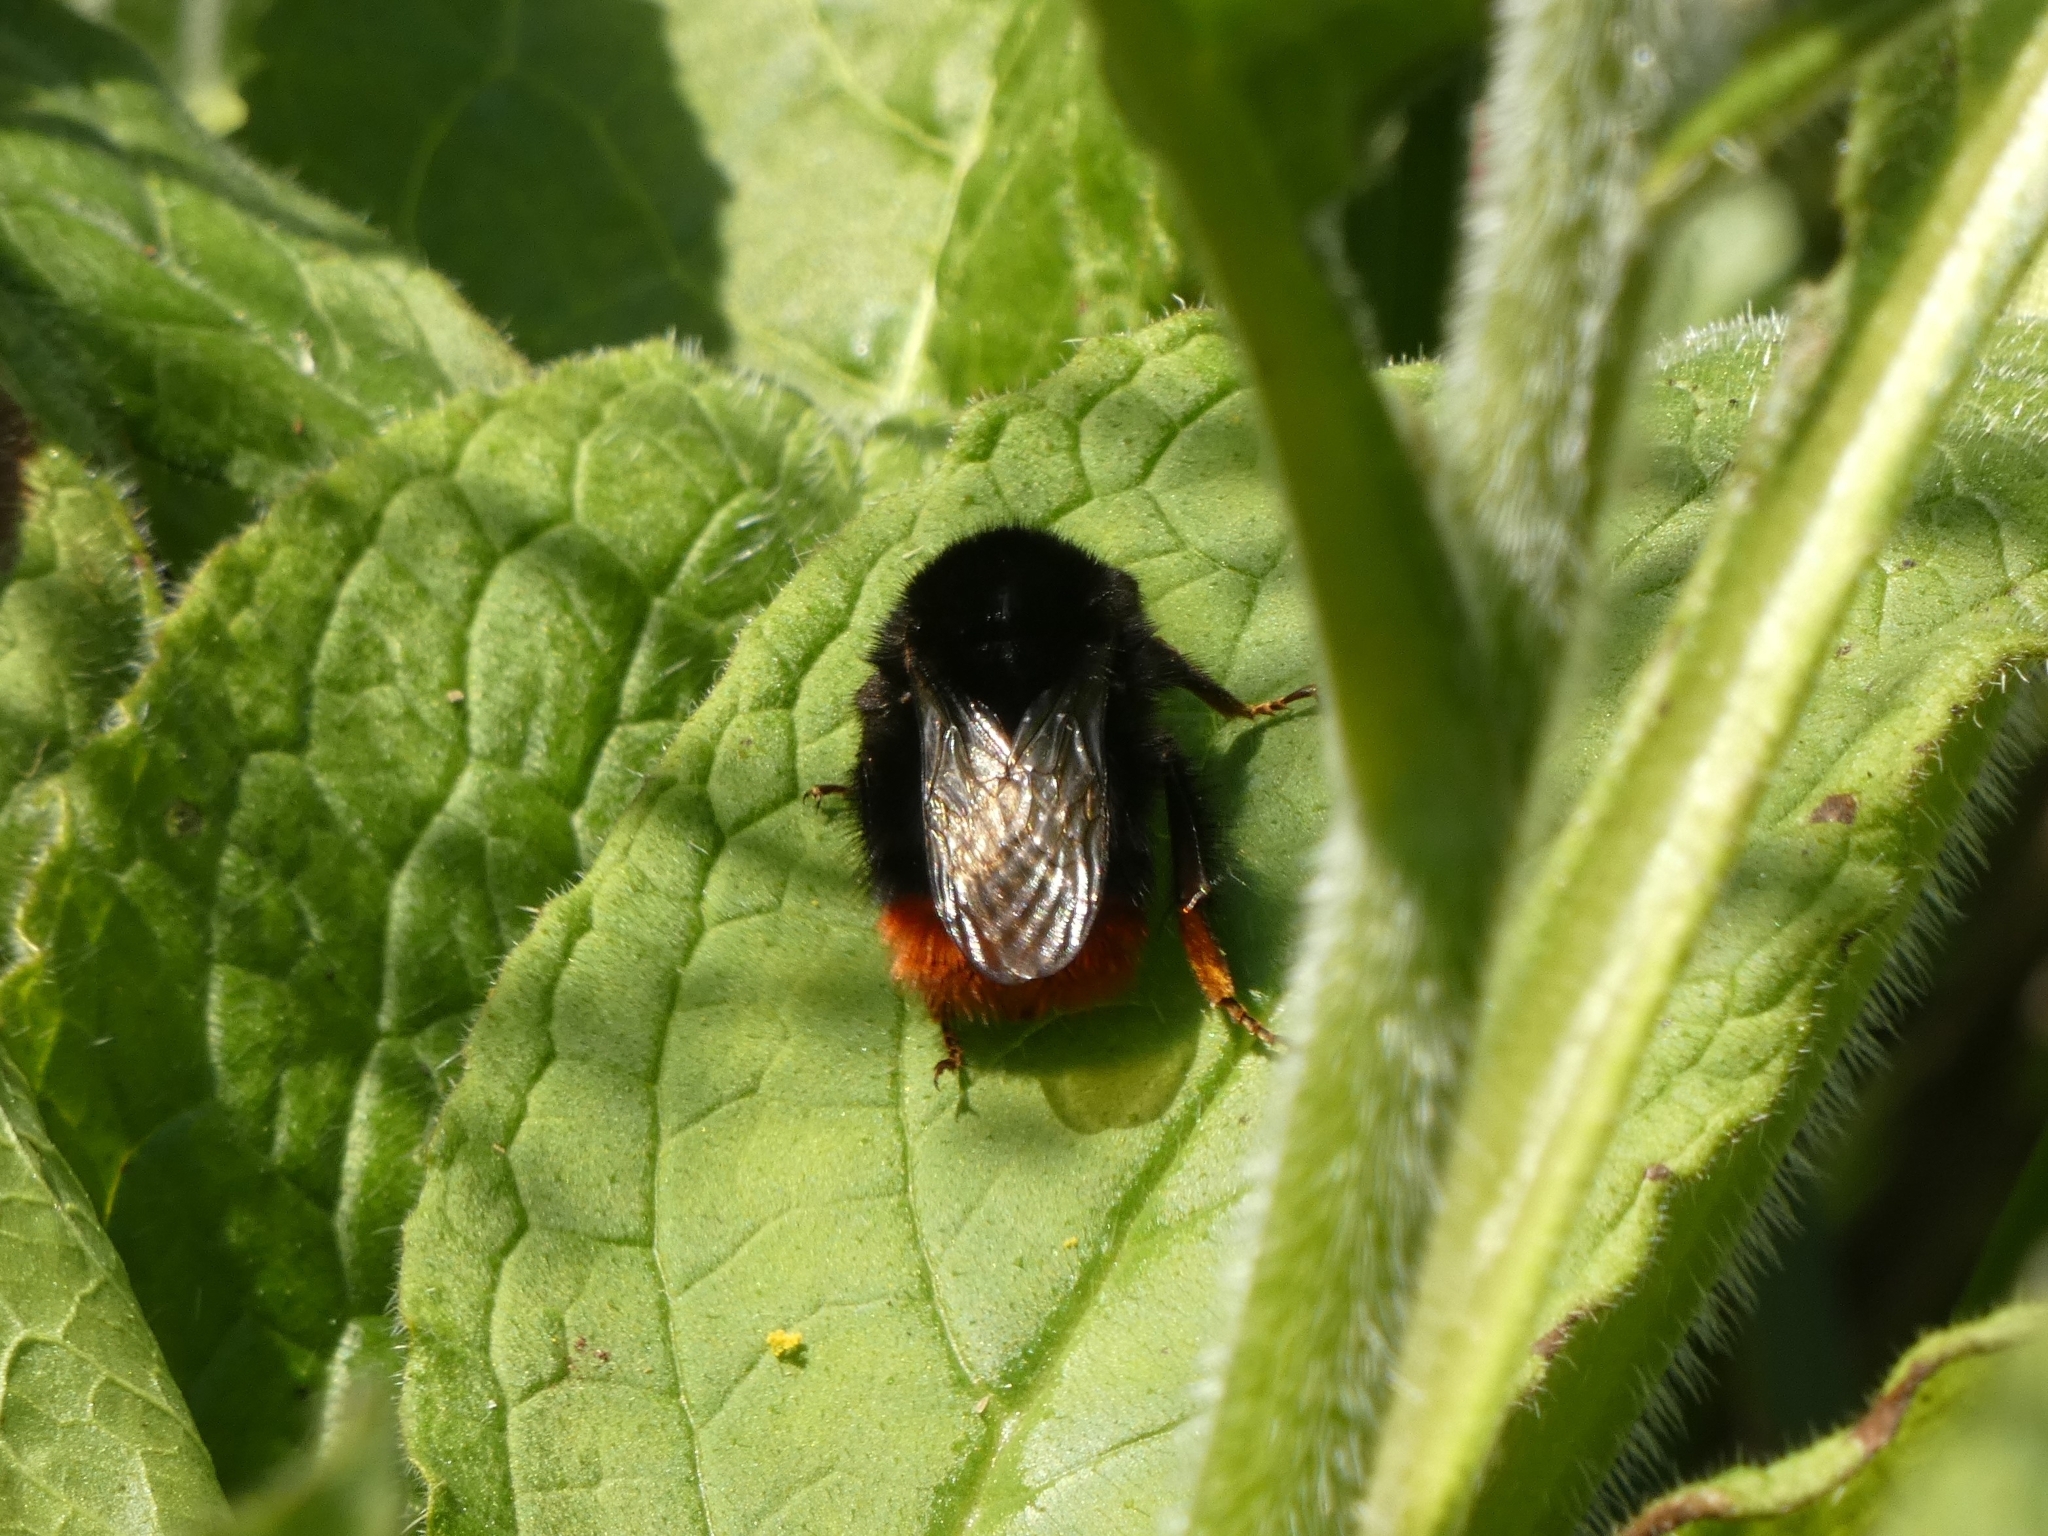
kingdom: Animalia
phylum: Arthropoda
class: Insecta
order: Hymenoptera
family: Apidae
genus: Bombus
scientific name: Bombus lapidarius
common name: Large red-tailed humble-bee
